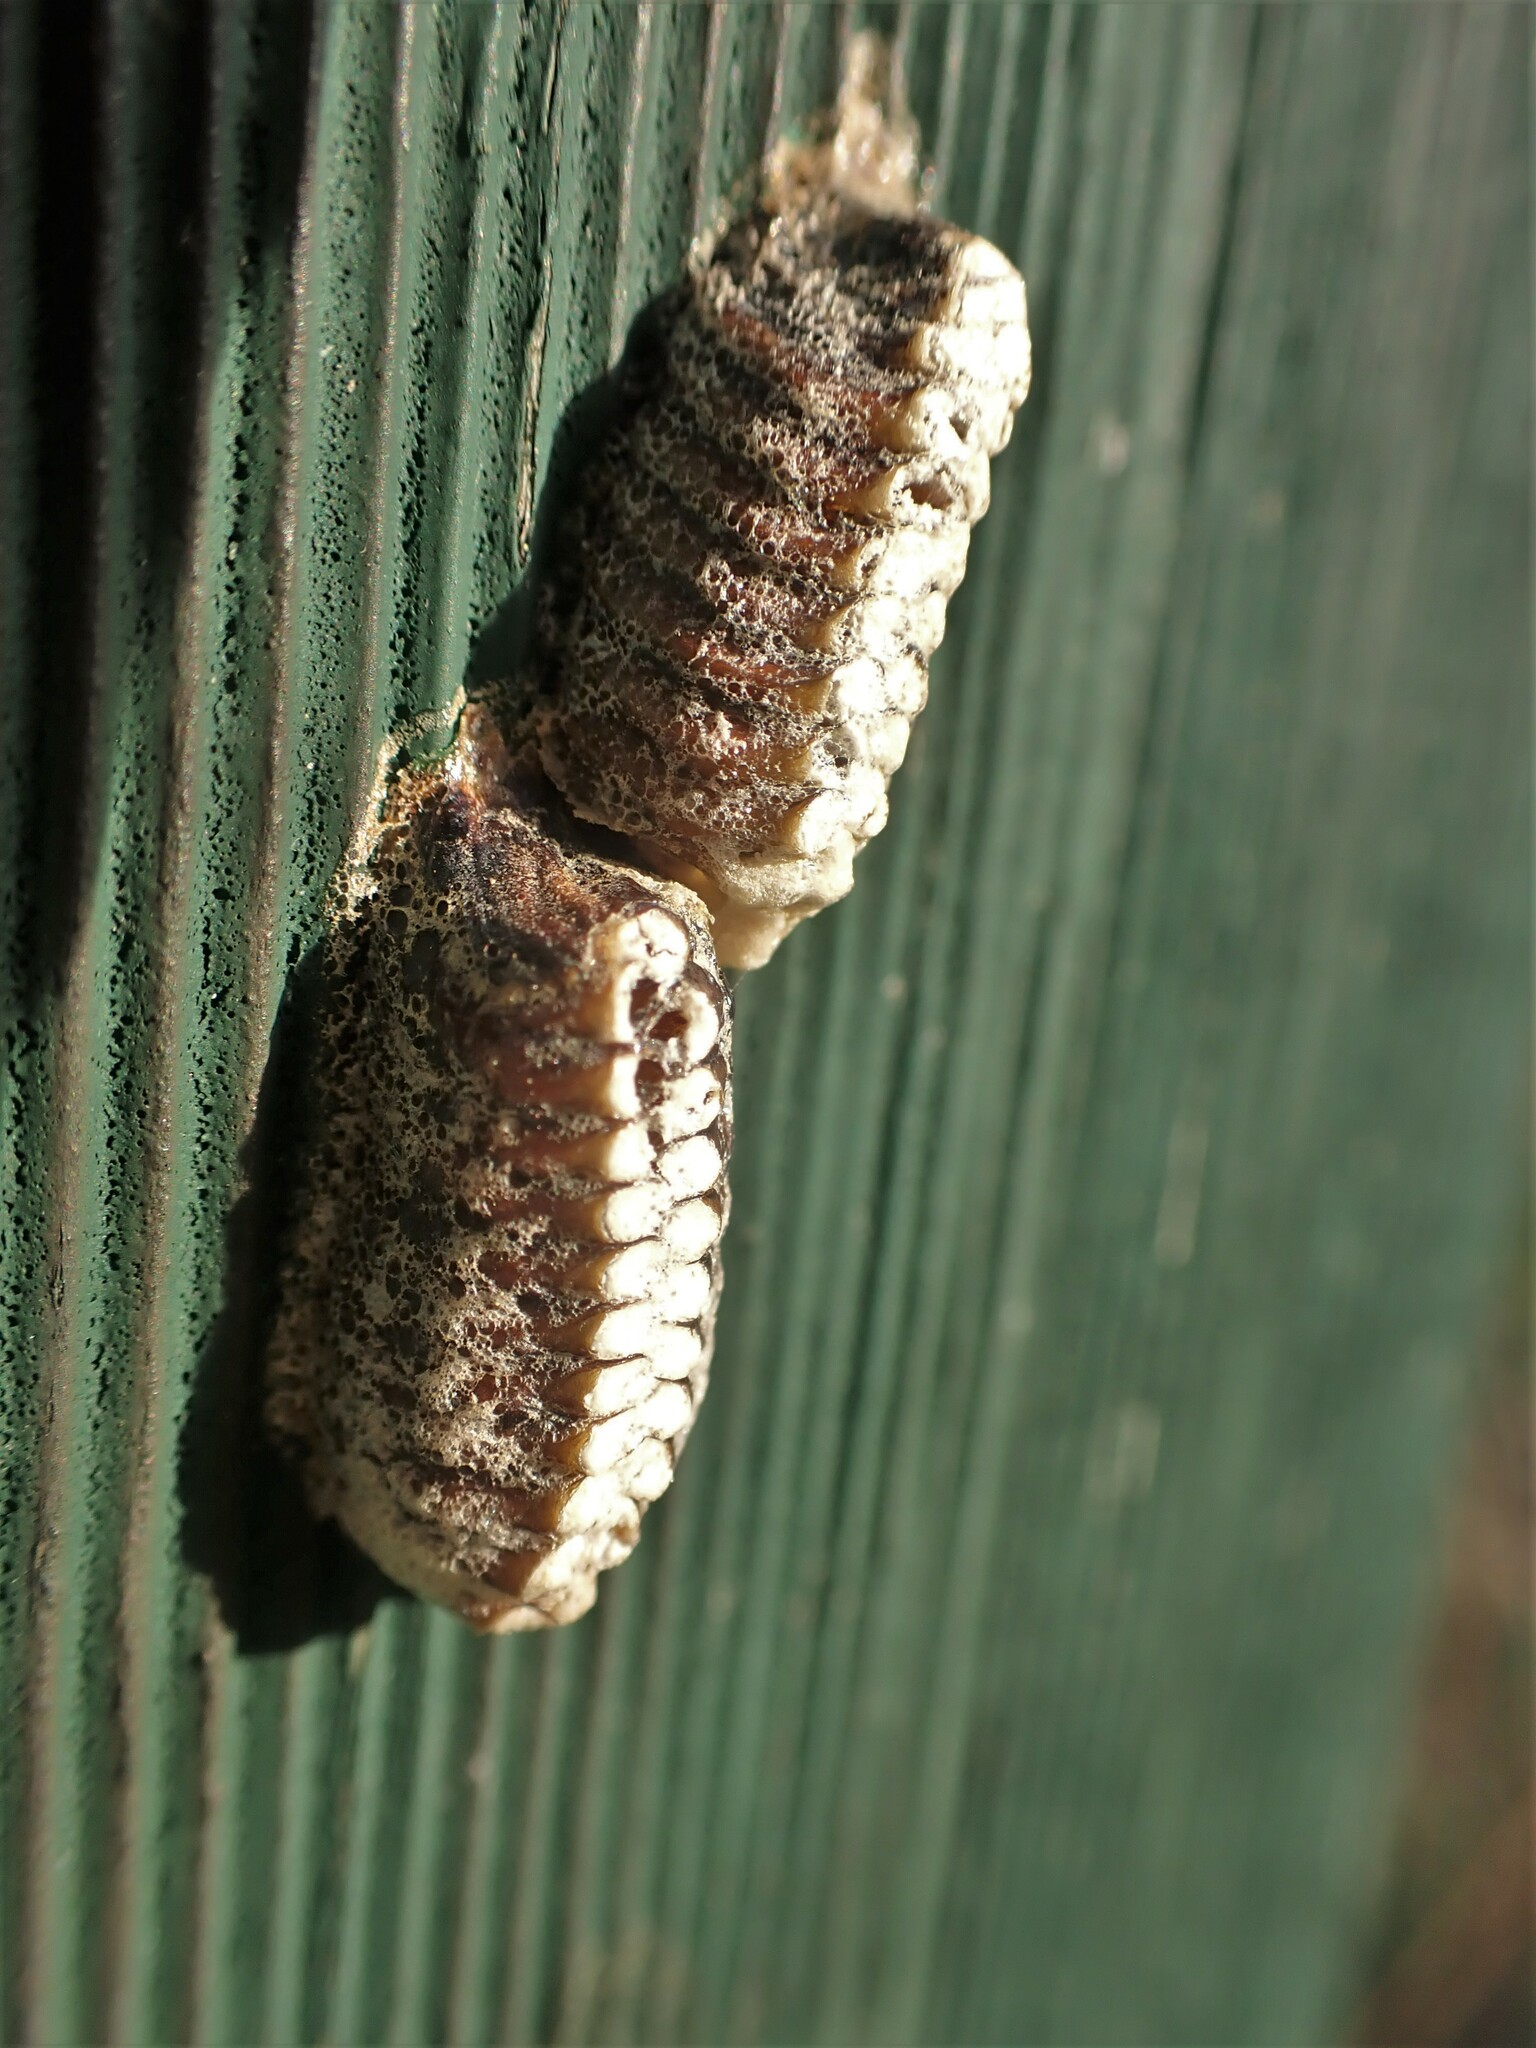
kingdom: Animalia
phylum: Arthropoda
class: Insecta
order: Mantodea
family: Mantidae
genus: Orthodera
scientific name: Orthodera novaezealandiae
